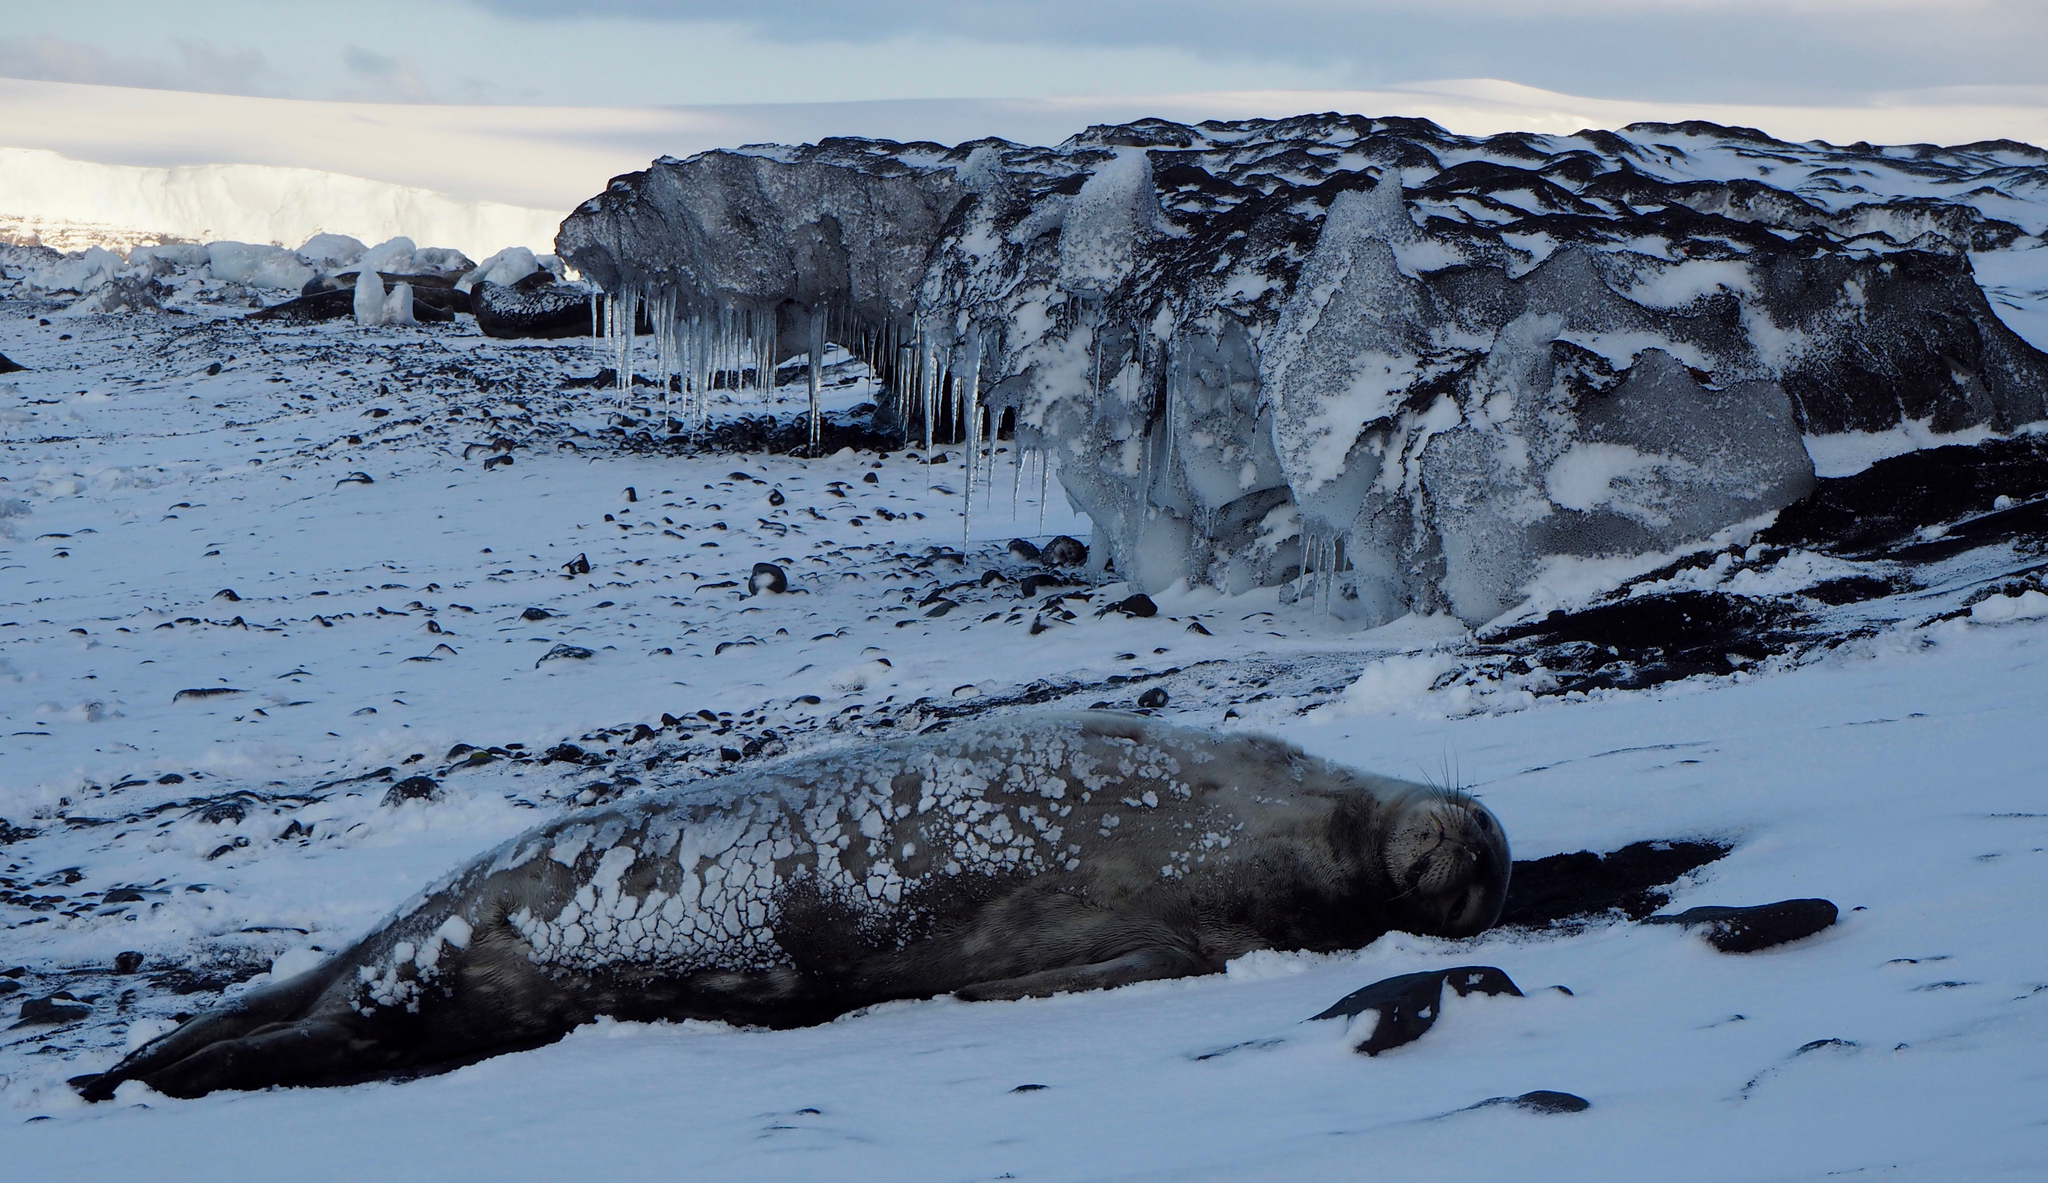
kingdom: Animalia
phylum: Chordata
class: Mammalia
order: Carnivora
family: Phocidae
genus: Leptonychotes
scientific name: Leptonychotes weddellii
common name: Weddell seal
